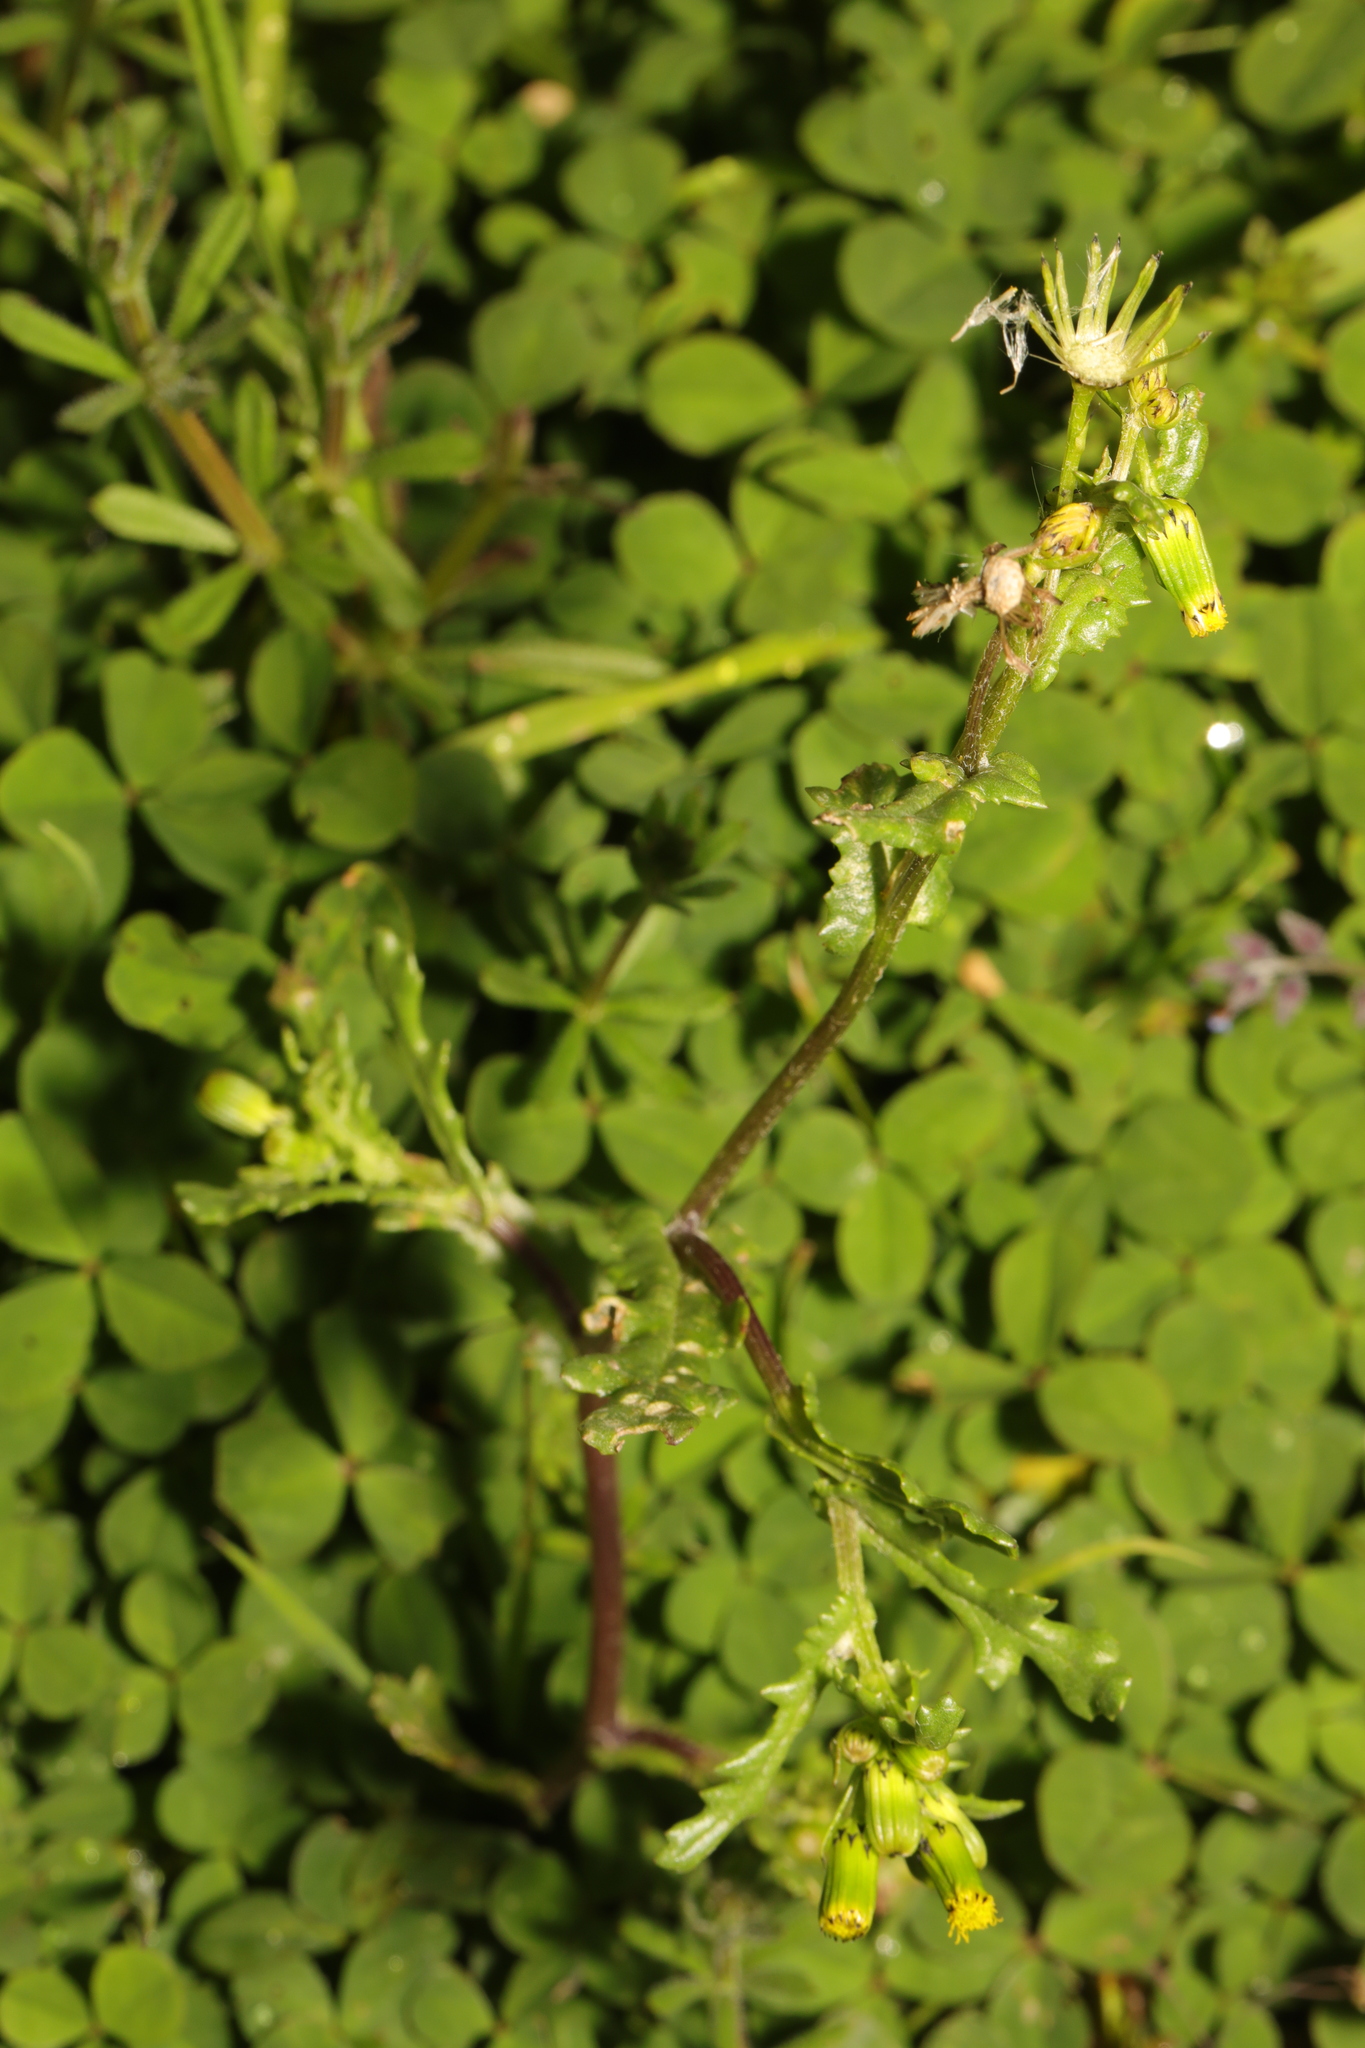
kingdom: Plantae
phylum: Tracheophyta
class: Magnoliopsida
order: Asterales
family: Asteraceae
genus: Senecio
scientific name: Senecio vulgaris
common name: Old-man-in-the-spring
